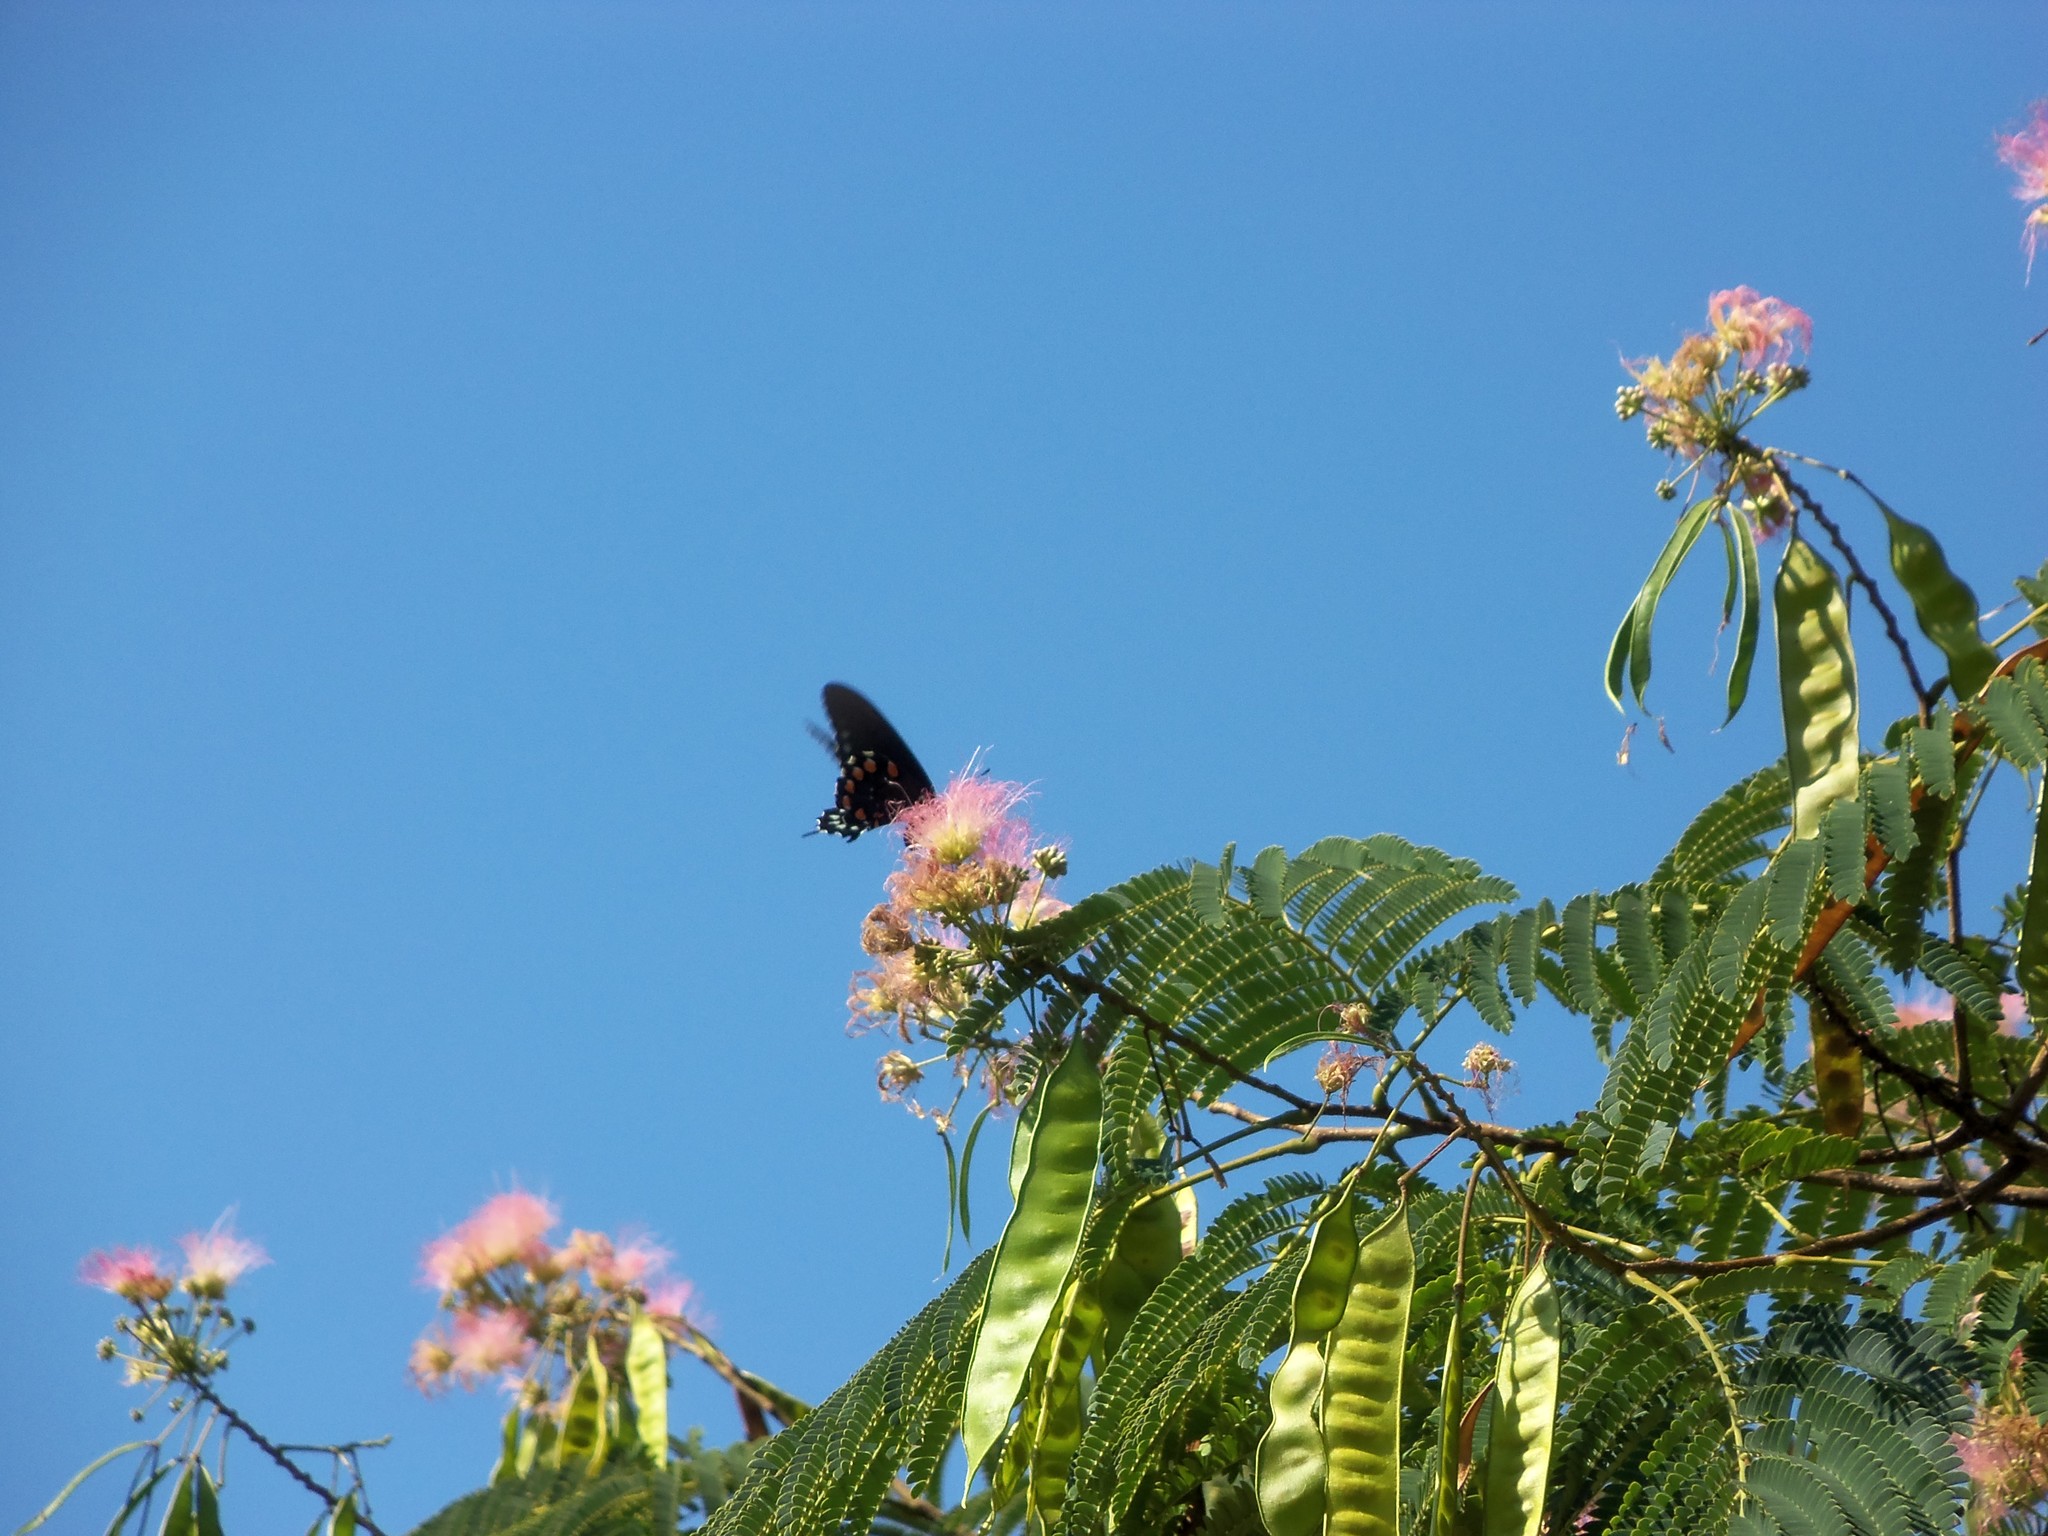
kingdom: Animalia
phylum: Arthropoda
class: Insecta
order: Lepidoptera
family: Papilionidae
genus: Battus
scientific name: Battus philenor
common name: Pipevine swallowtail
